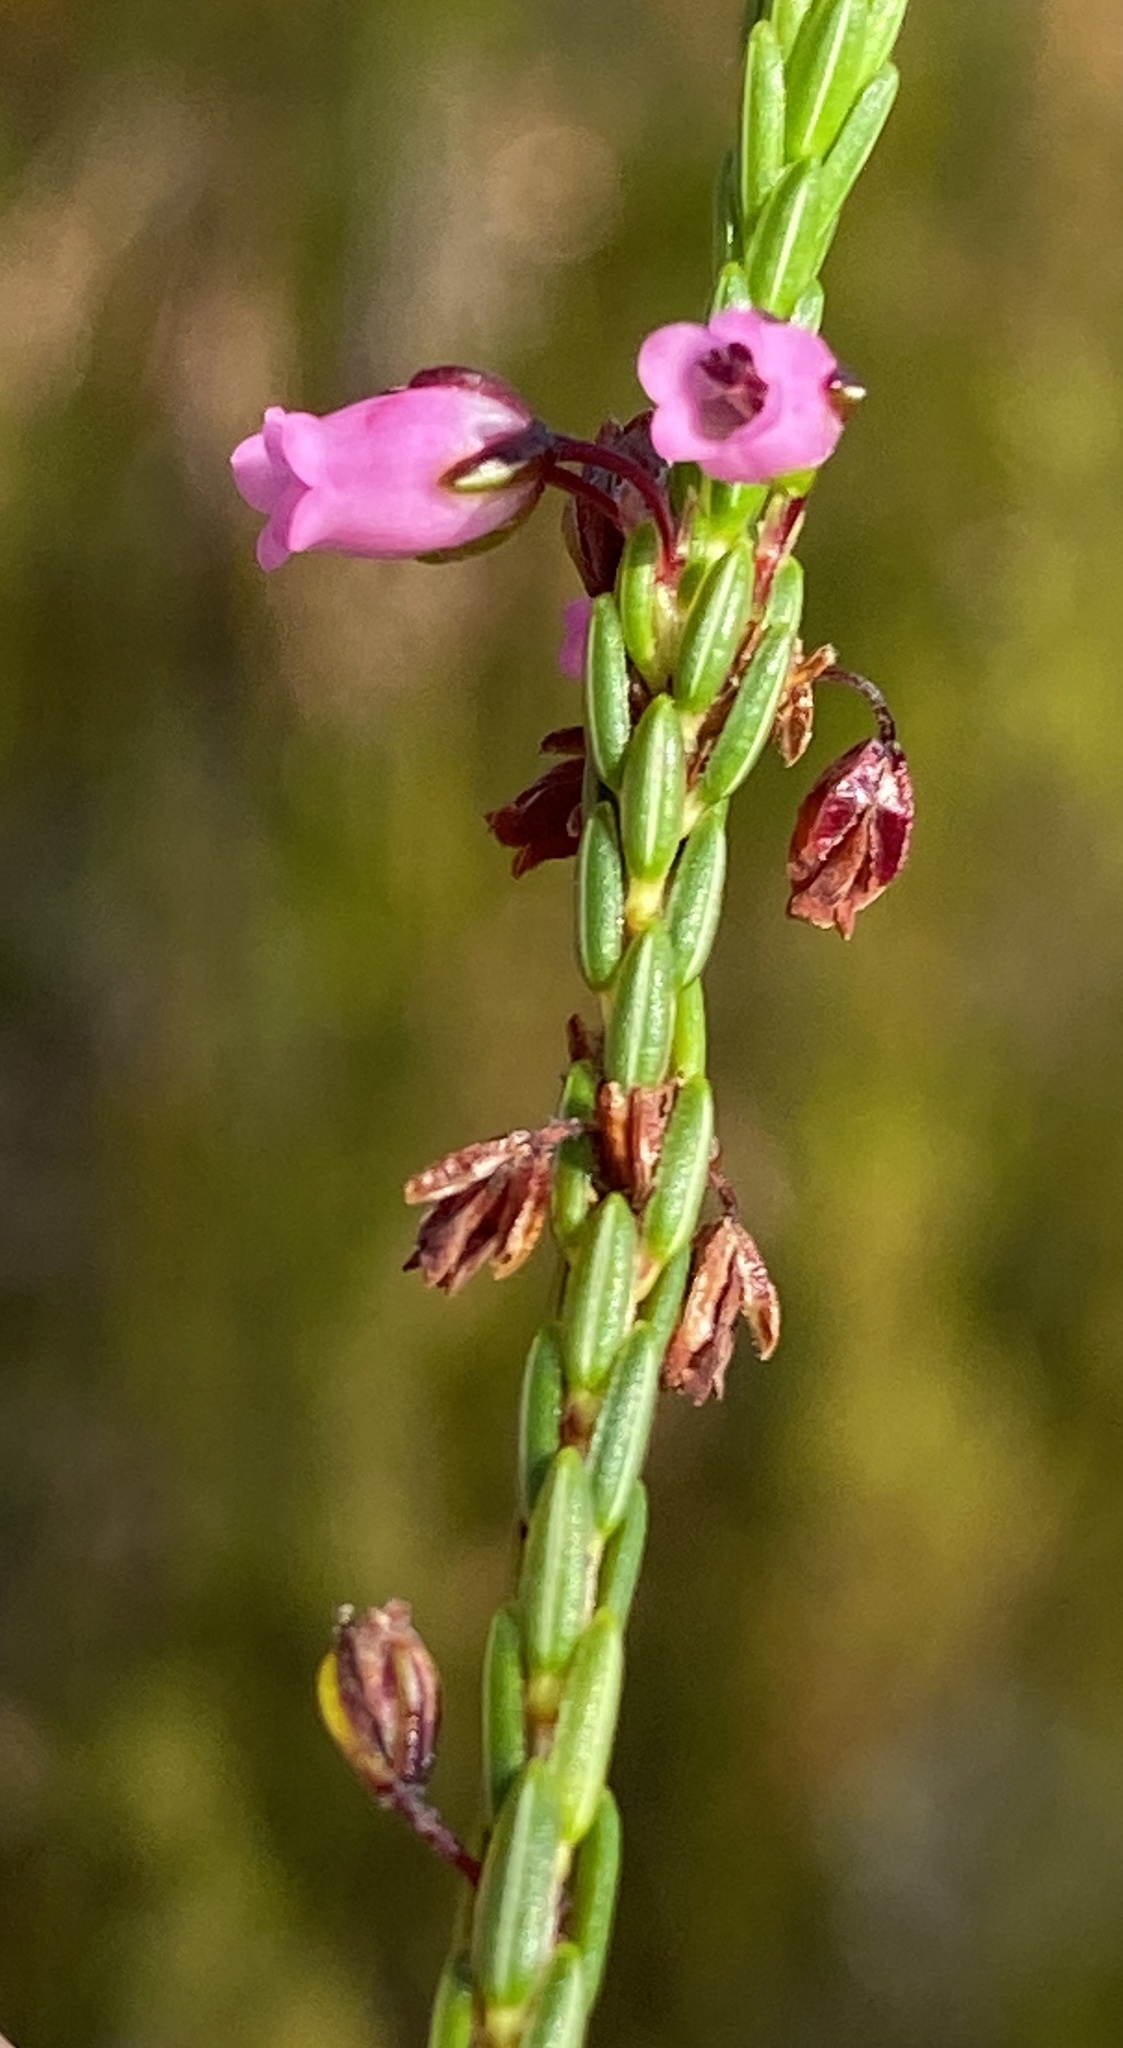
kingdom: Plantae
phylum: Tracheophyta
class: Magnoliopsida
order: Ericales
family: Ericaceae
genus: Erica
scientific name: Erica pulchella
